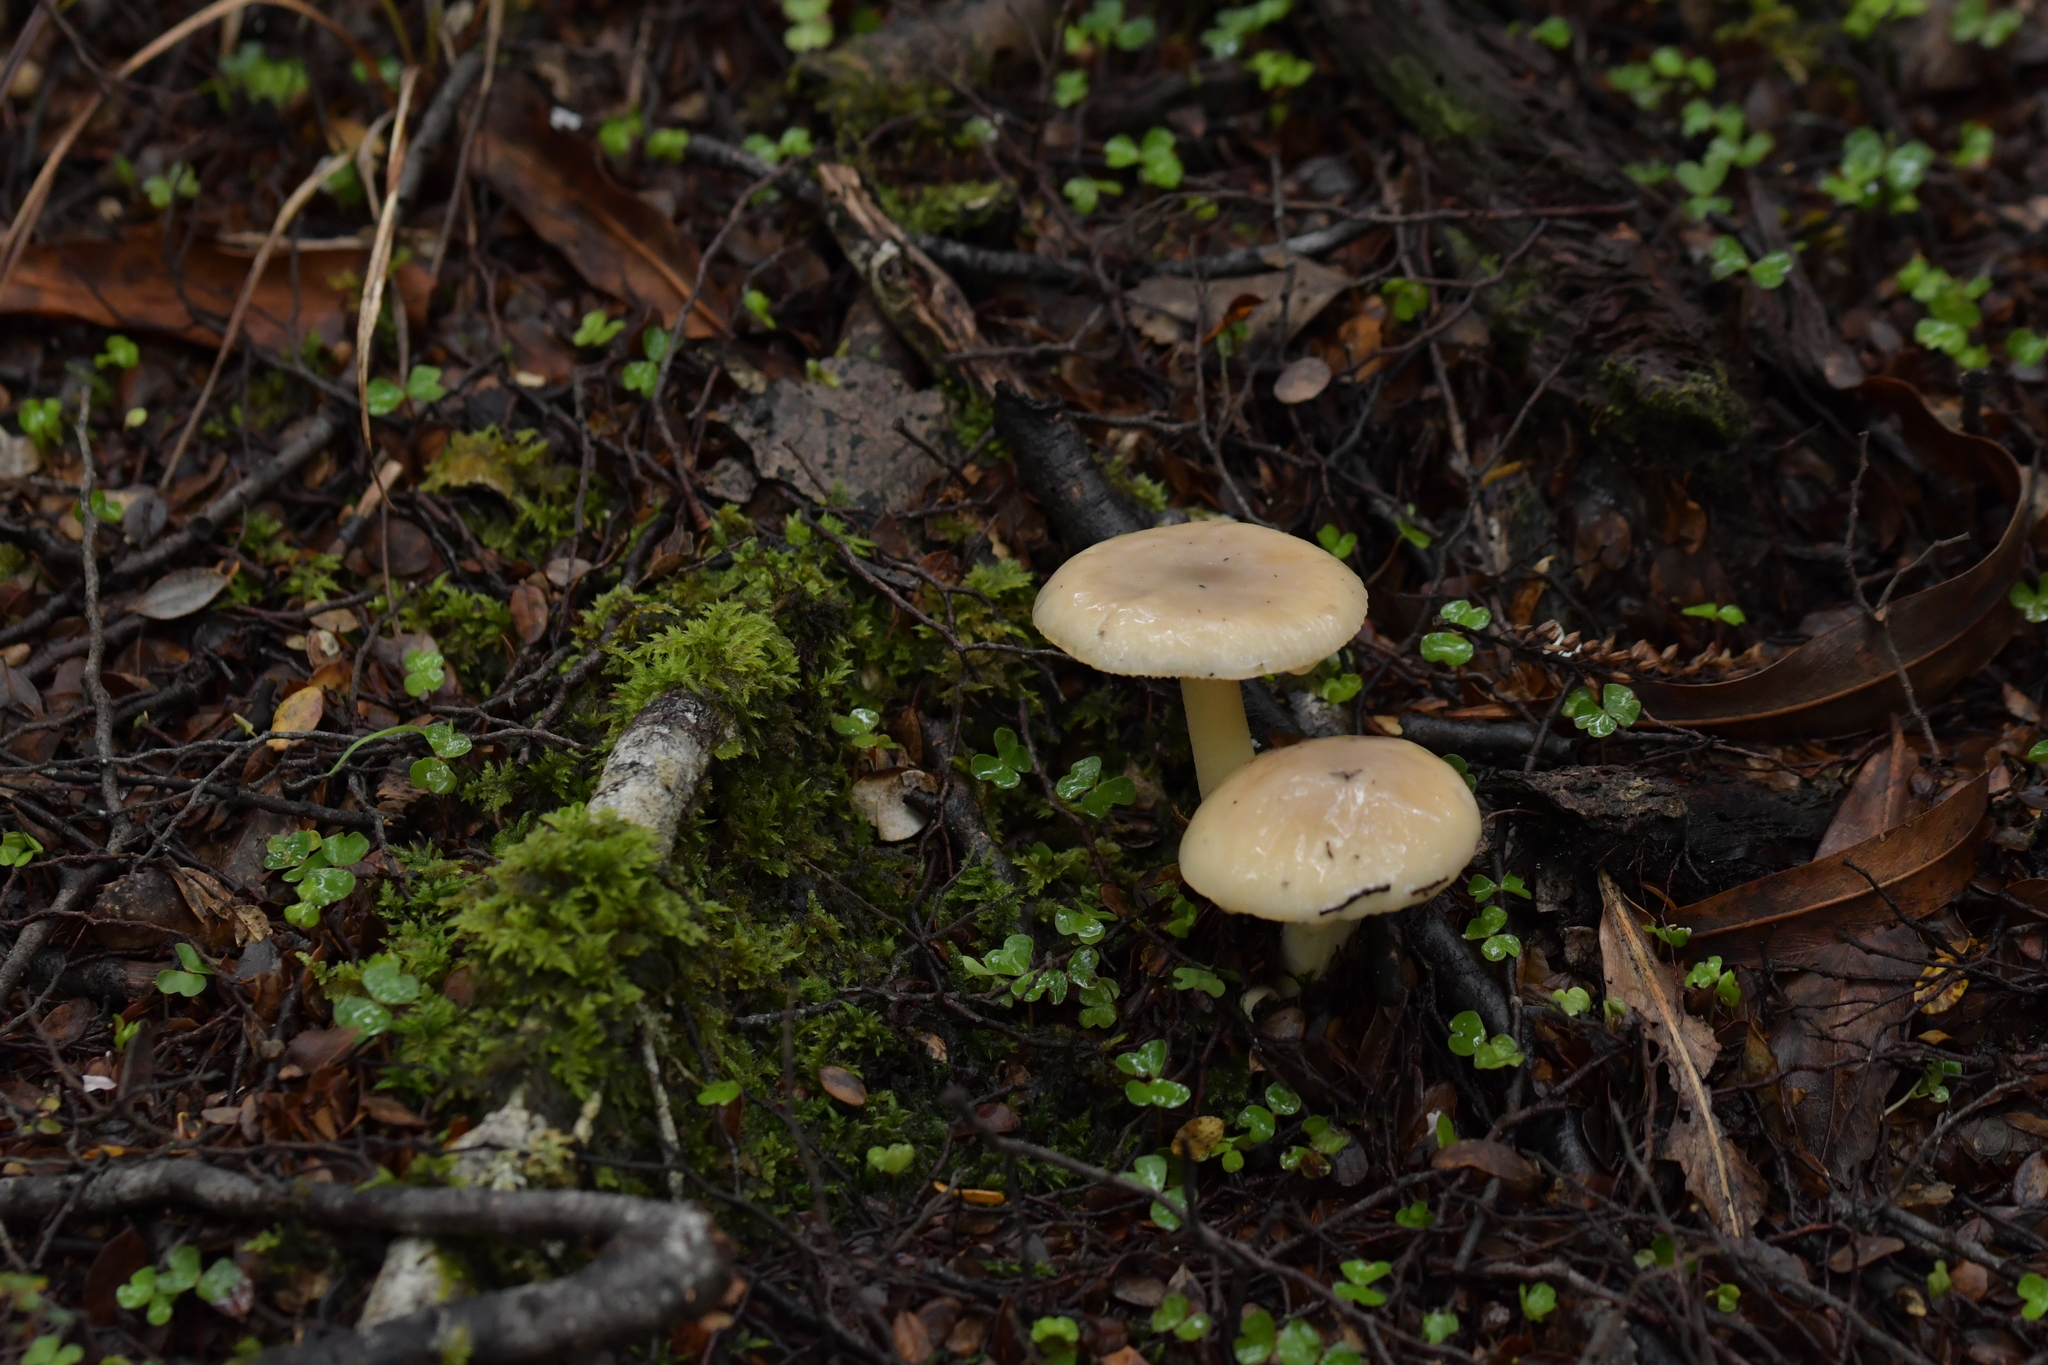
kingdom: Fungi
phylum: Basidiomycota
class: Agaricomycetes
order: Agaricales
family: Amanitaceae
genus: Amanita
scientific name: Amanita taiepa
